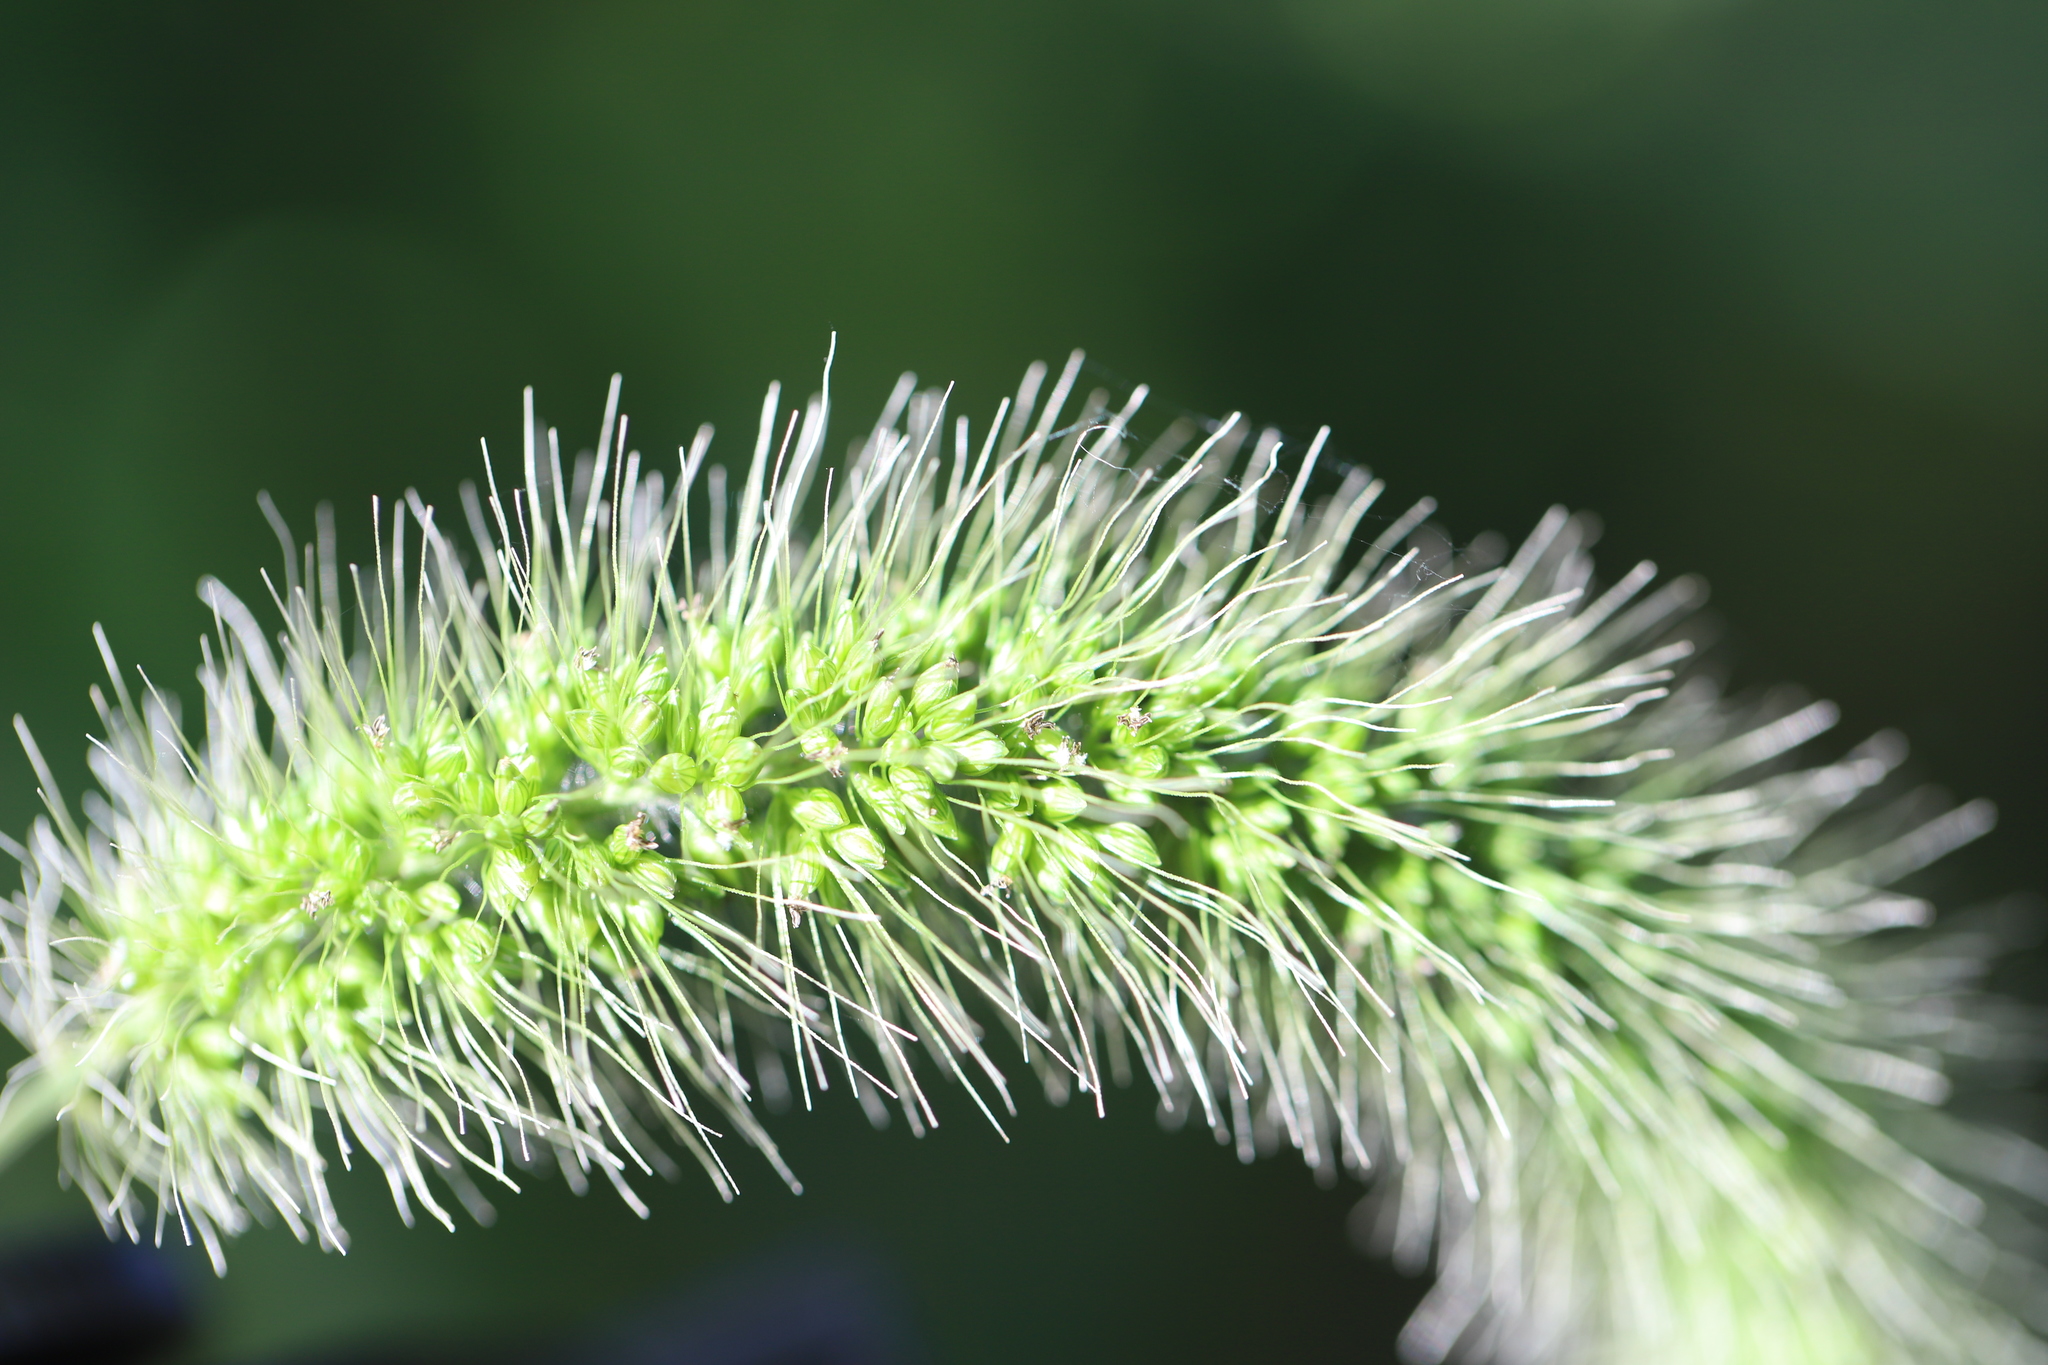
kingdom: Plantae
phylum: Tracheophyta
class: Liliopsida
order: Poales
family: Poaceae
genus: Setaria
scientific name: Setaria faberi
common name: Nodding bristle-grass
